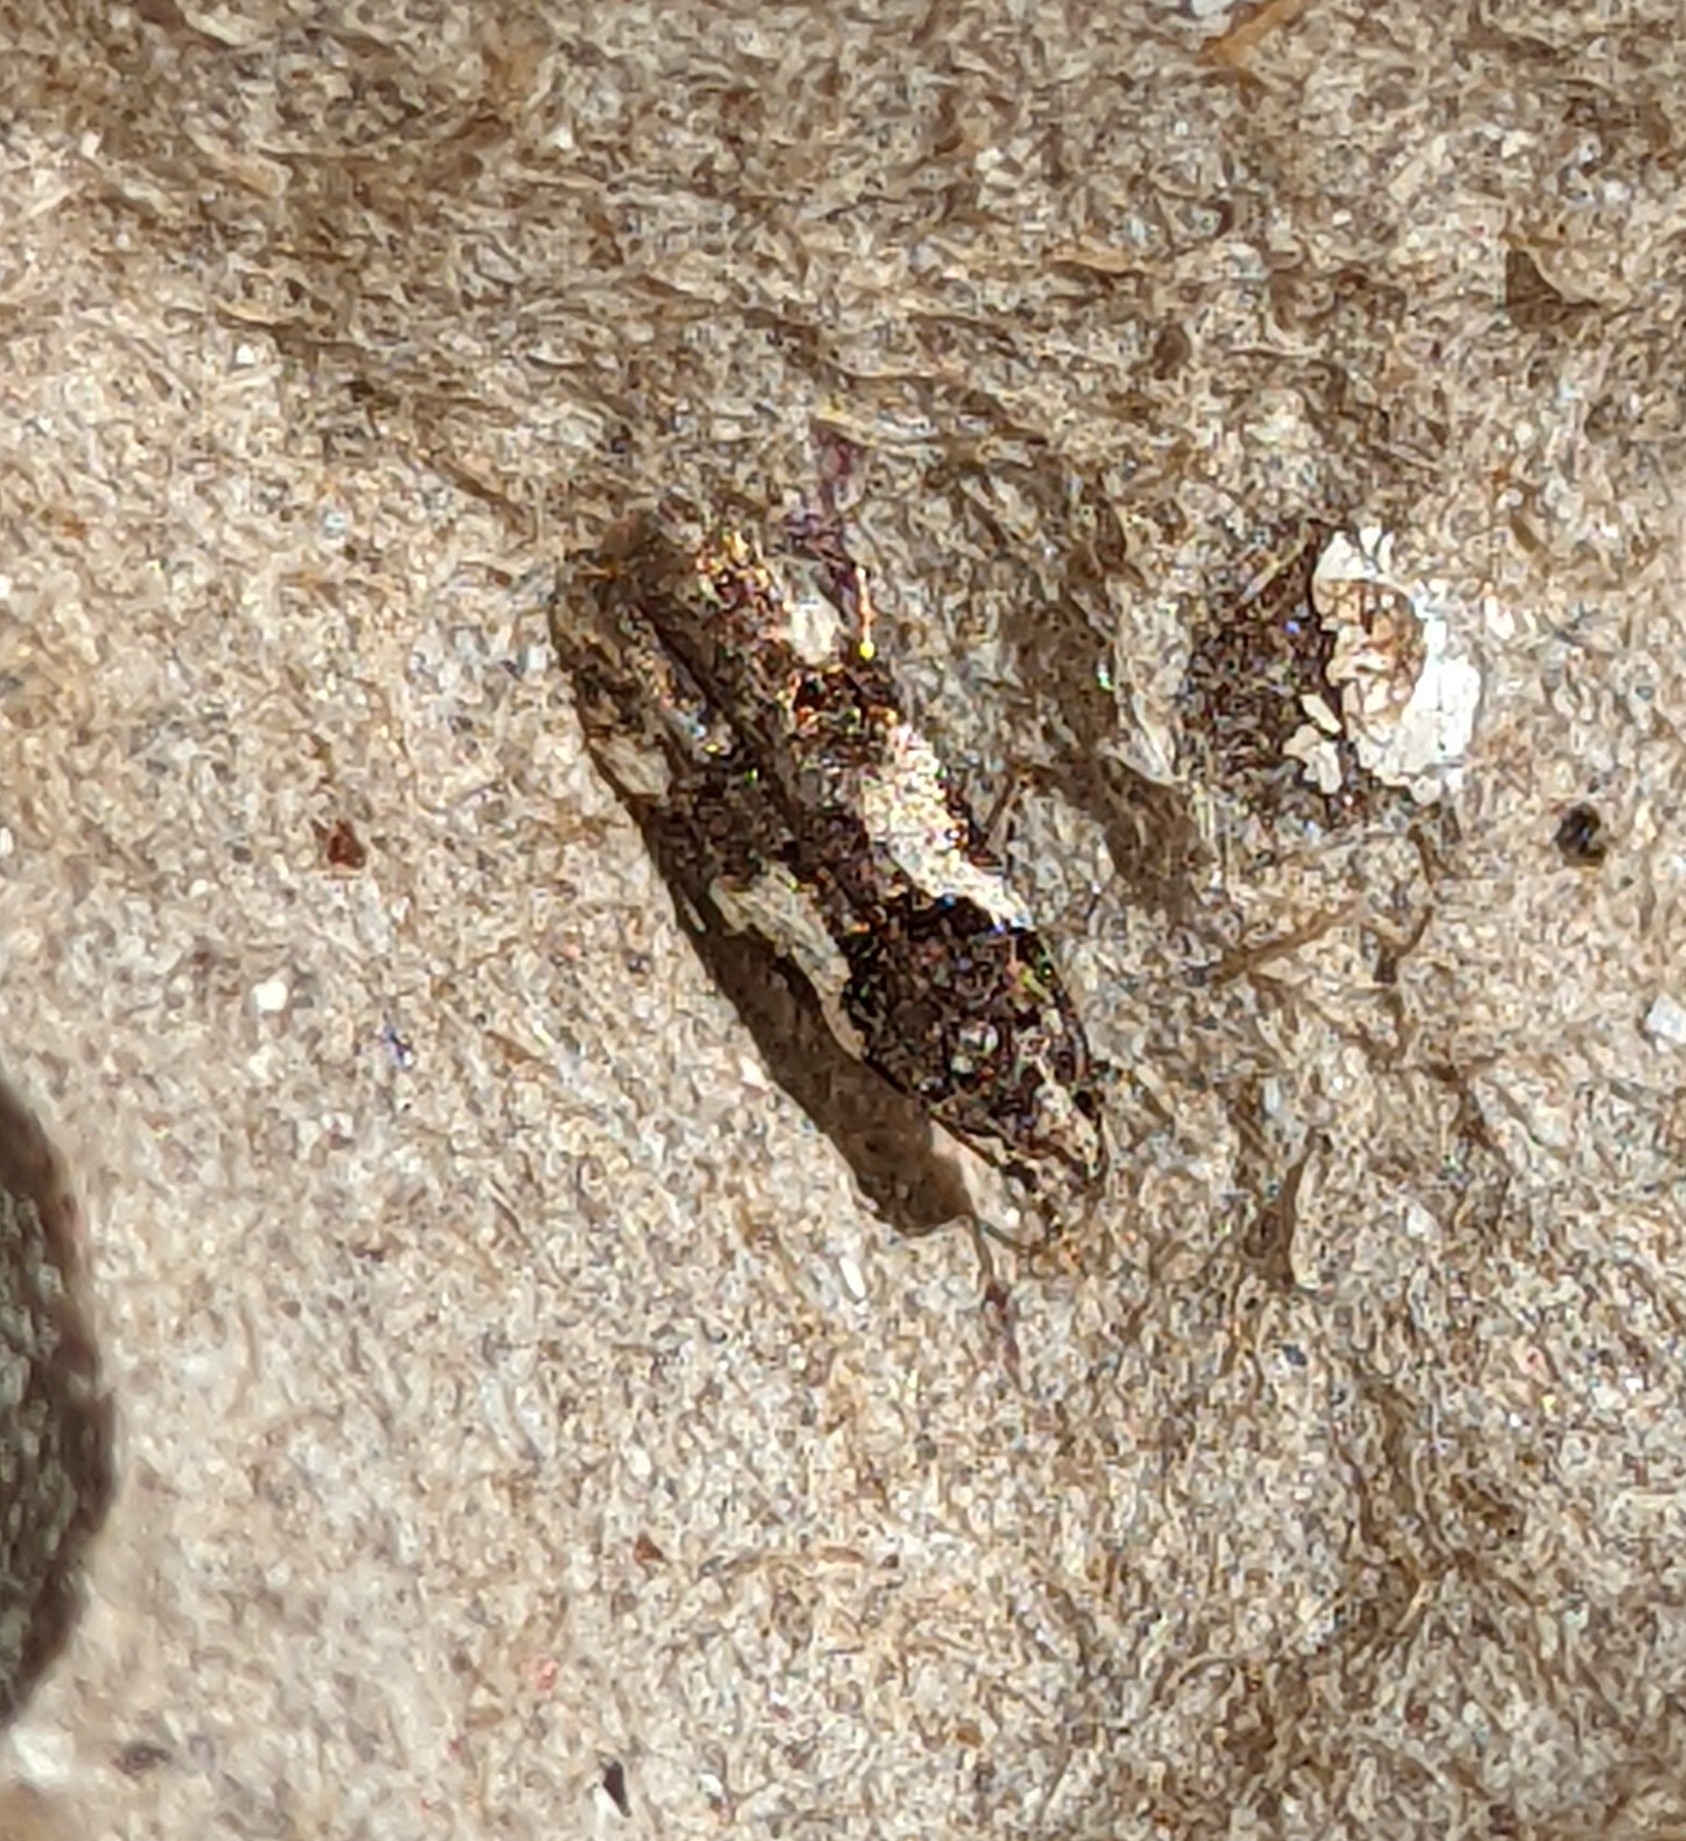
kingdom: Animalia
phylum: Arthropoda
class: Insecta
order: Lepidoptera
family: Gelechiidae
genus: Teleiodes
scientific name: Teleiodes luculella
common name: Crescent groundling
